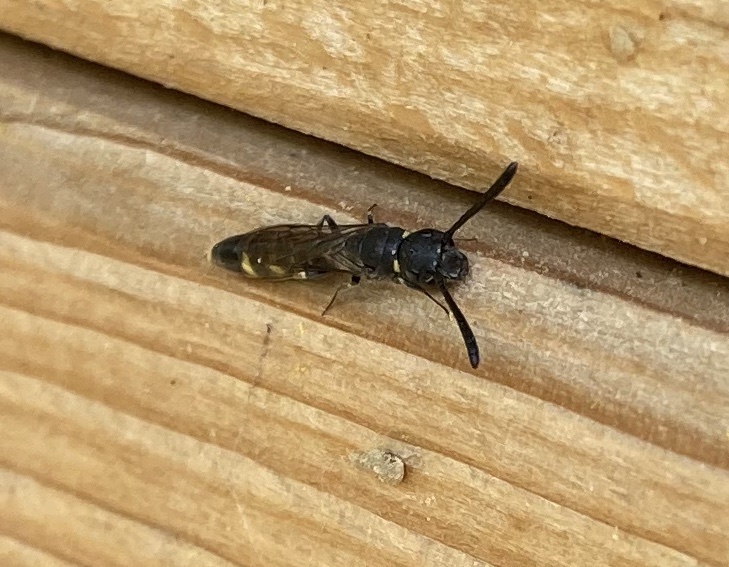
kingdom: Animalia
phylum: Arthropoda
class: Insecta
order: Hymenoptera
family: Sapygidae
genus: Monosapyga
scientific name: Monosapyga clavicornis
